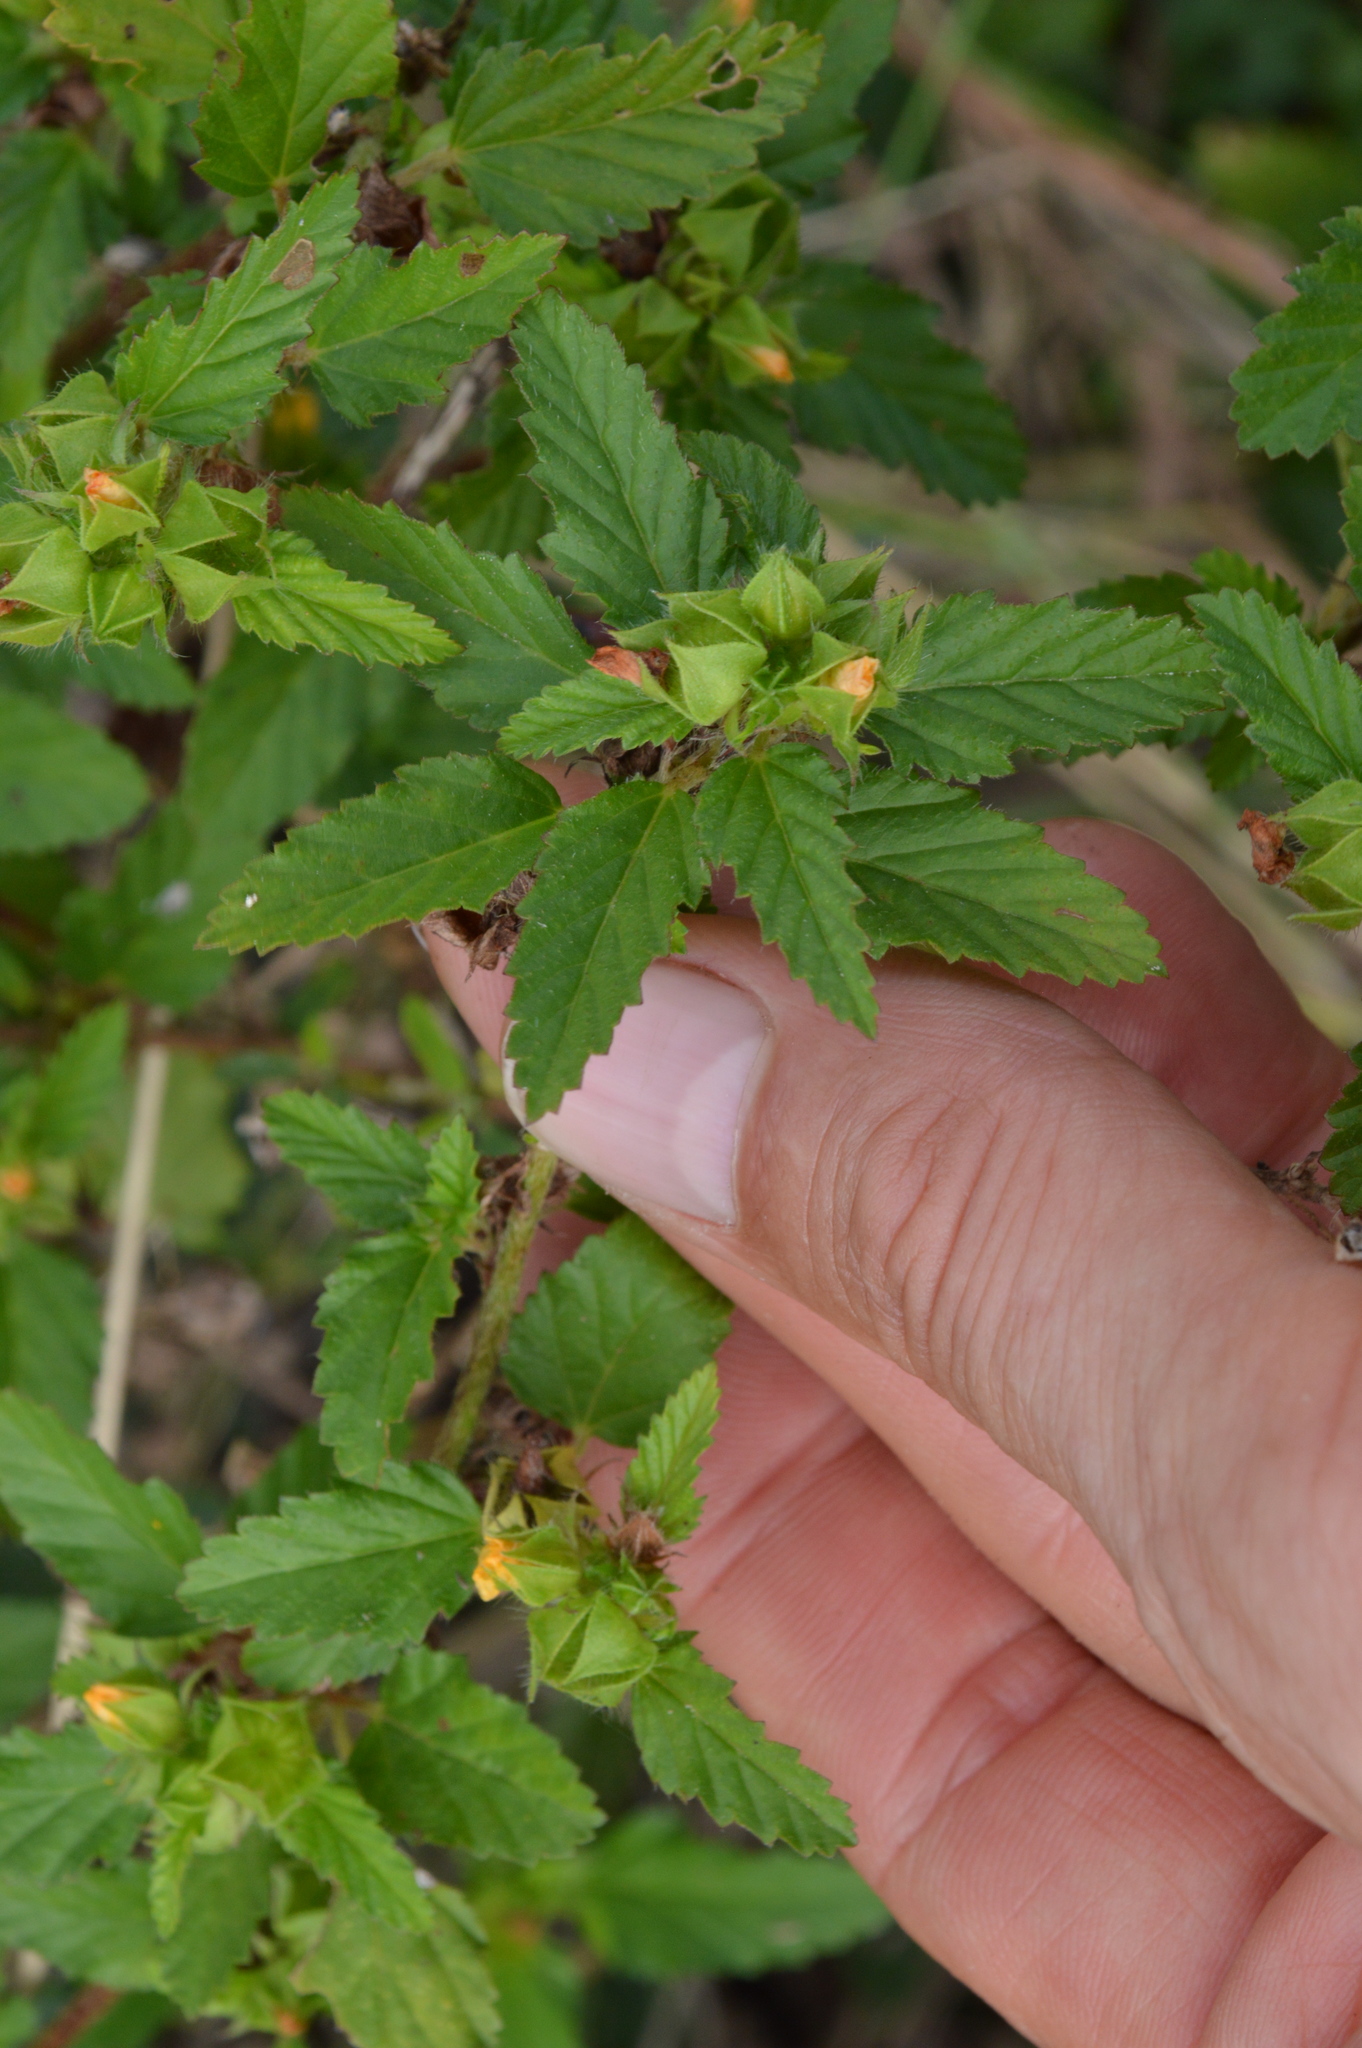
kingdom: Plantae
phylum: Tracheophyta
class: Magnoliopsida
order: Malvales
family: Malvaceae
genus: Malvastrum
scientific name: Malvastrum coromandelianum
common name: Threelobe false mallow
